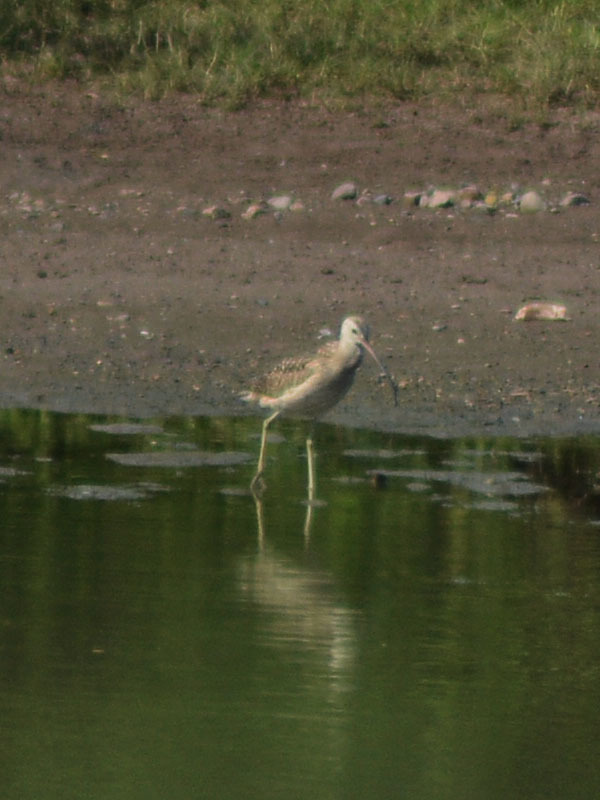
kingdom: Animalia
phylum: Chordata
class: Aves
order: Charadriiformes
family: Scolopacidae
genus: Numenius
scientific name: Numenius americanus
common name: Long-billed curlew
